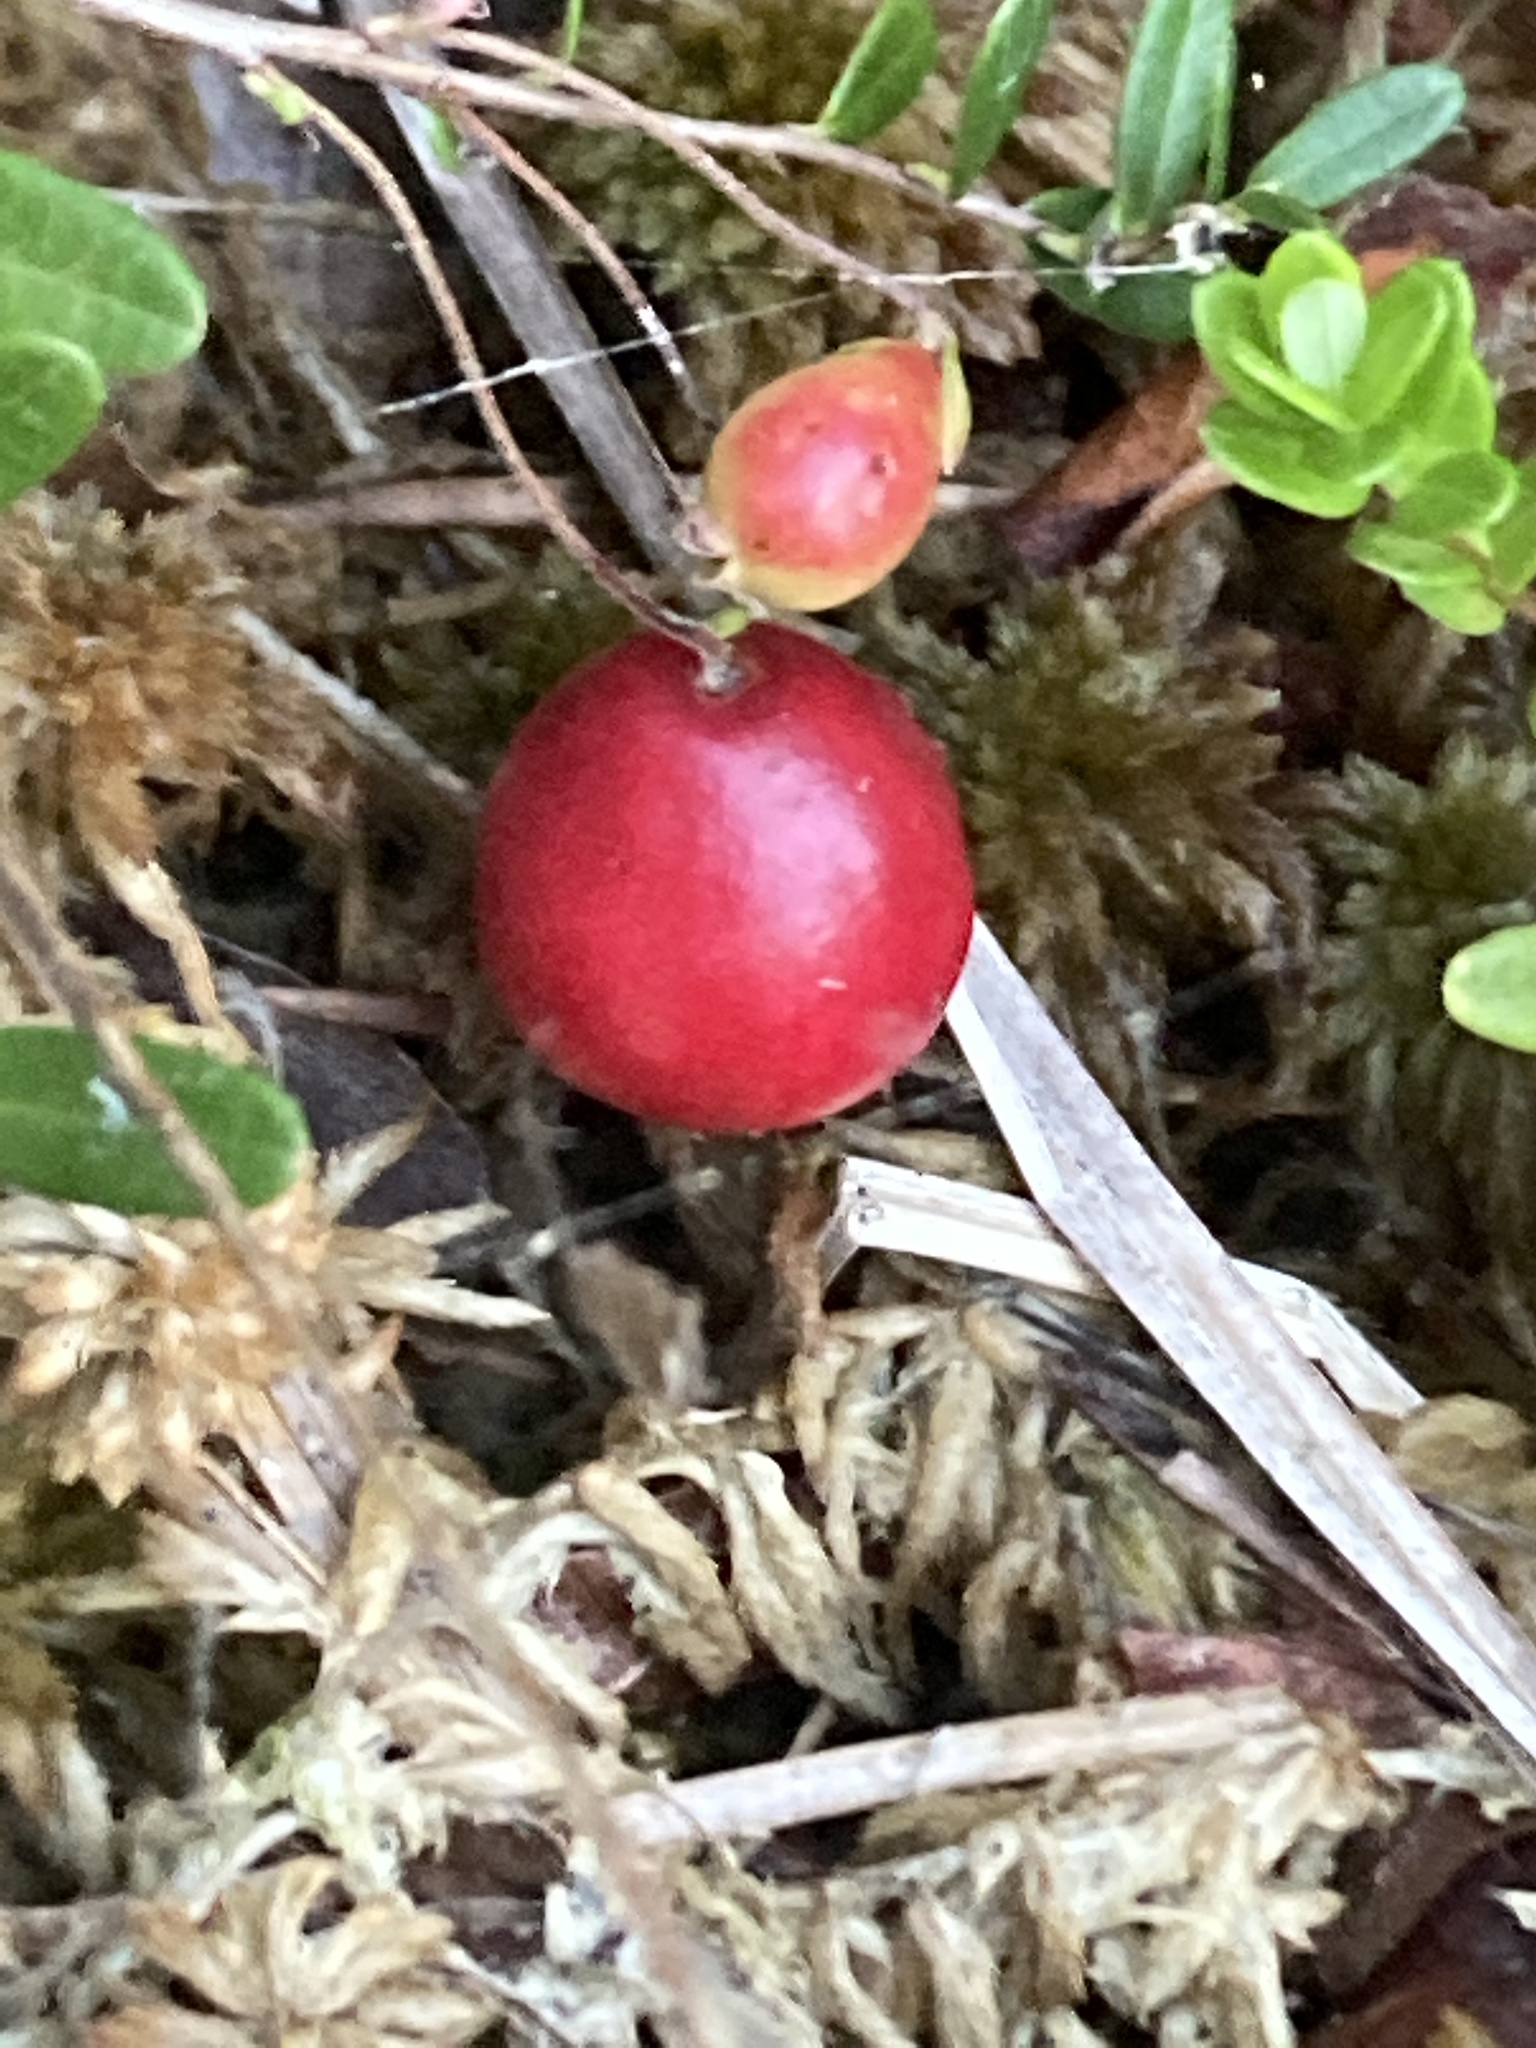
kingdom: Plantae
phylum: Tracheophyta
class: Magnoliopsida
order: Ericales
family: Ericaceae
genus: Vaccinium
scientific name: Vaccinium macrocarpon
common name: American cranberry
